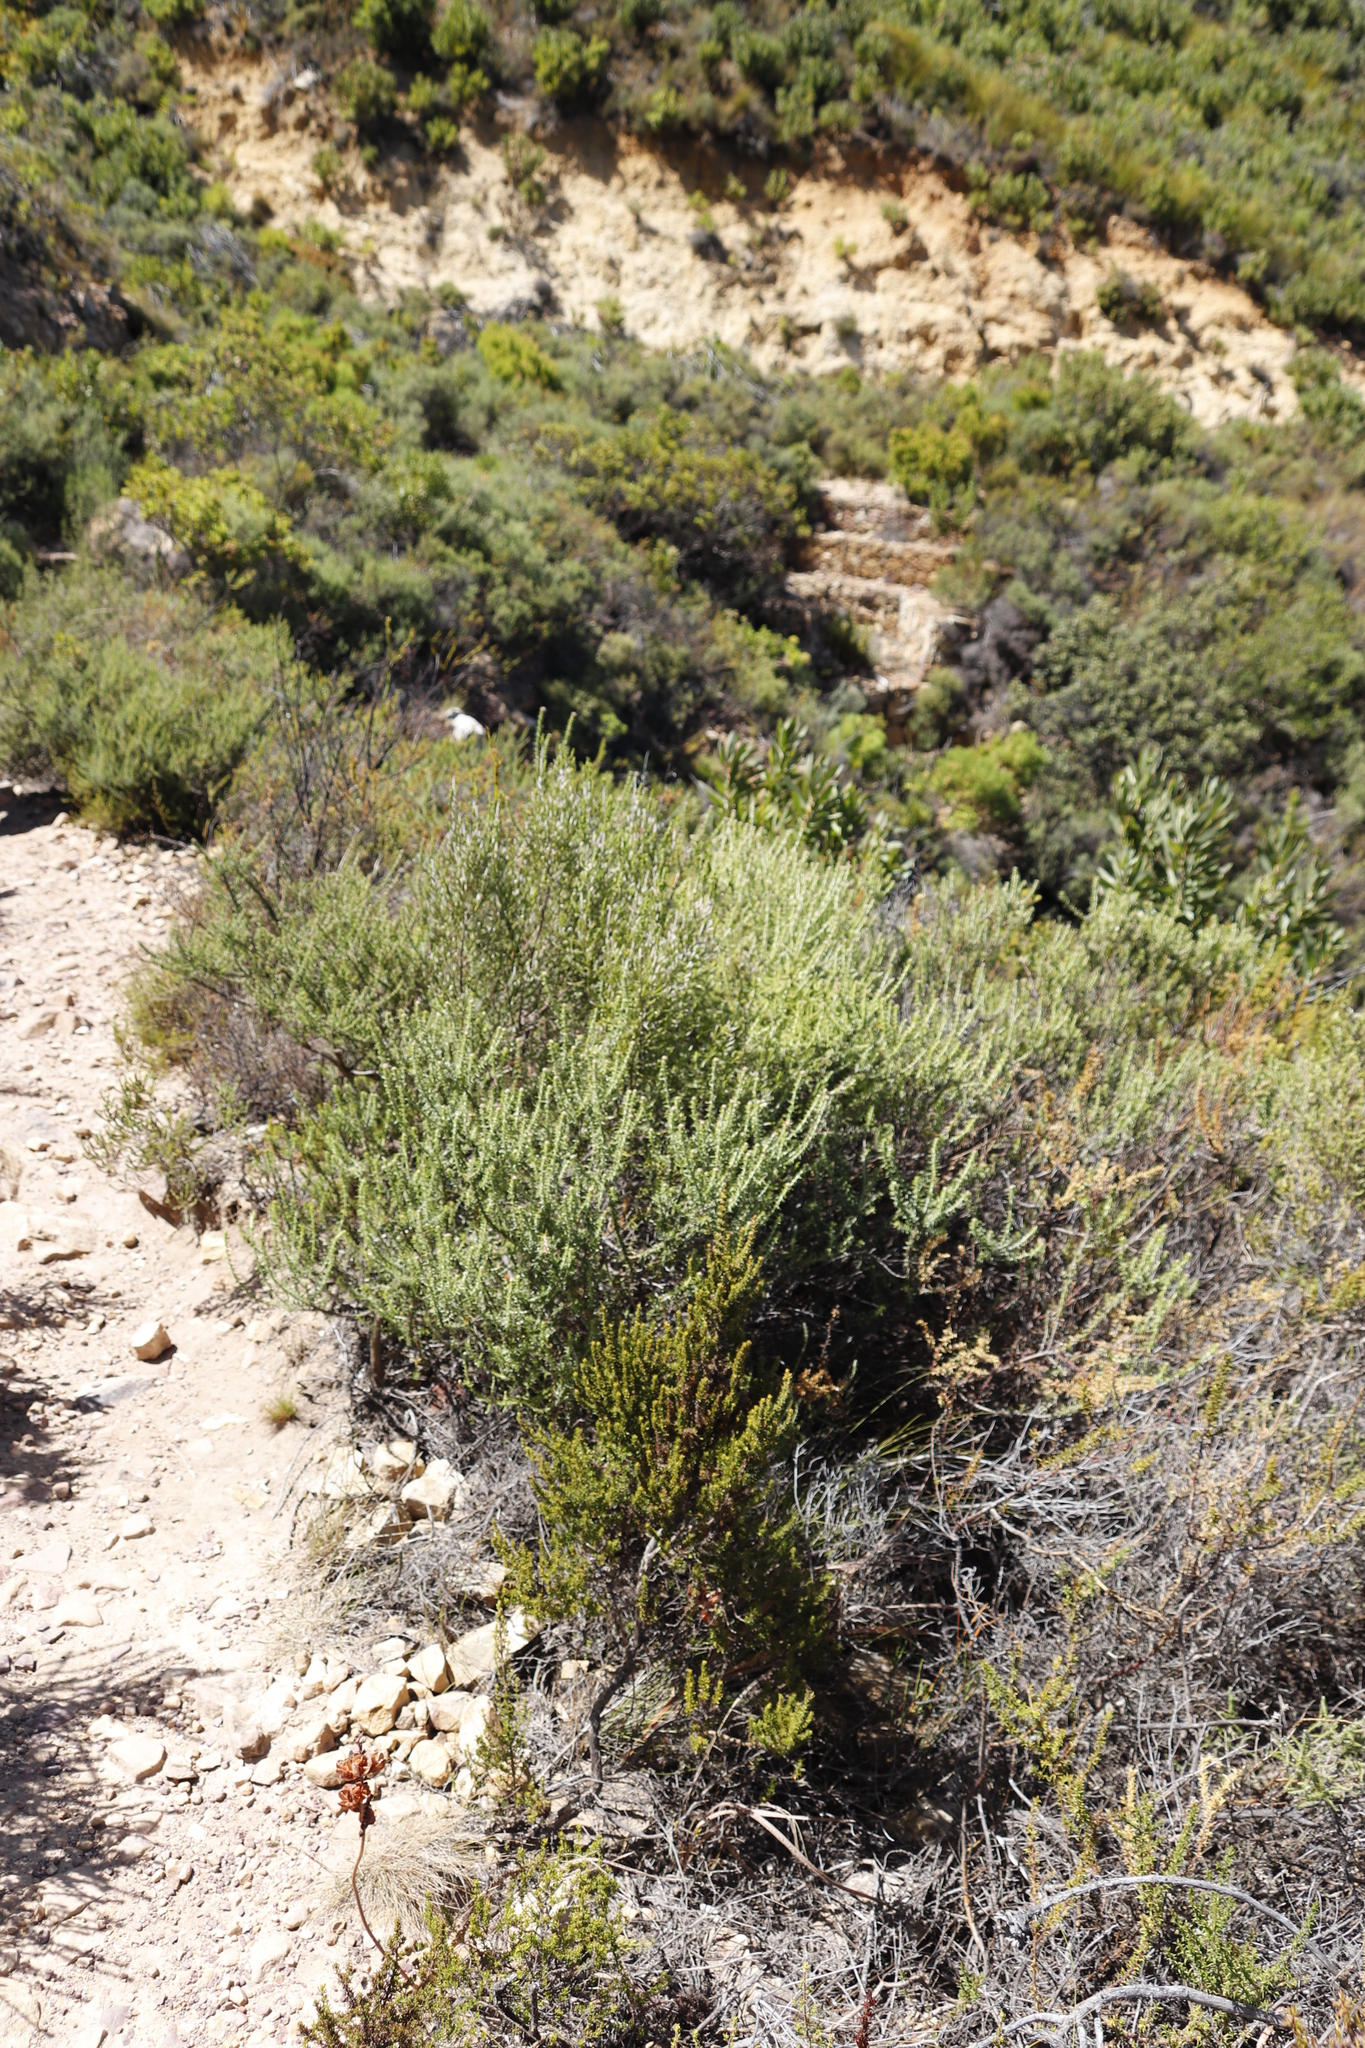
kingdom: Plantae
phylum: Tracheophyta
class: Magnoliopsida
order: Asterales
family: Asteraceae
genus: Metalasia
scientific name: Metalasia densa
